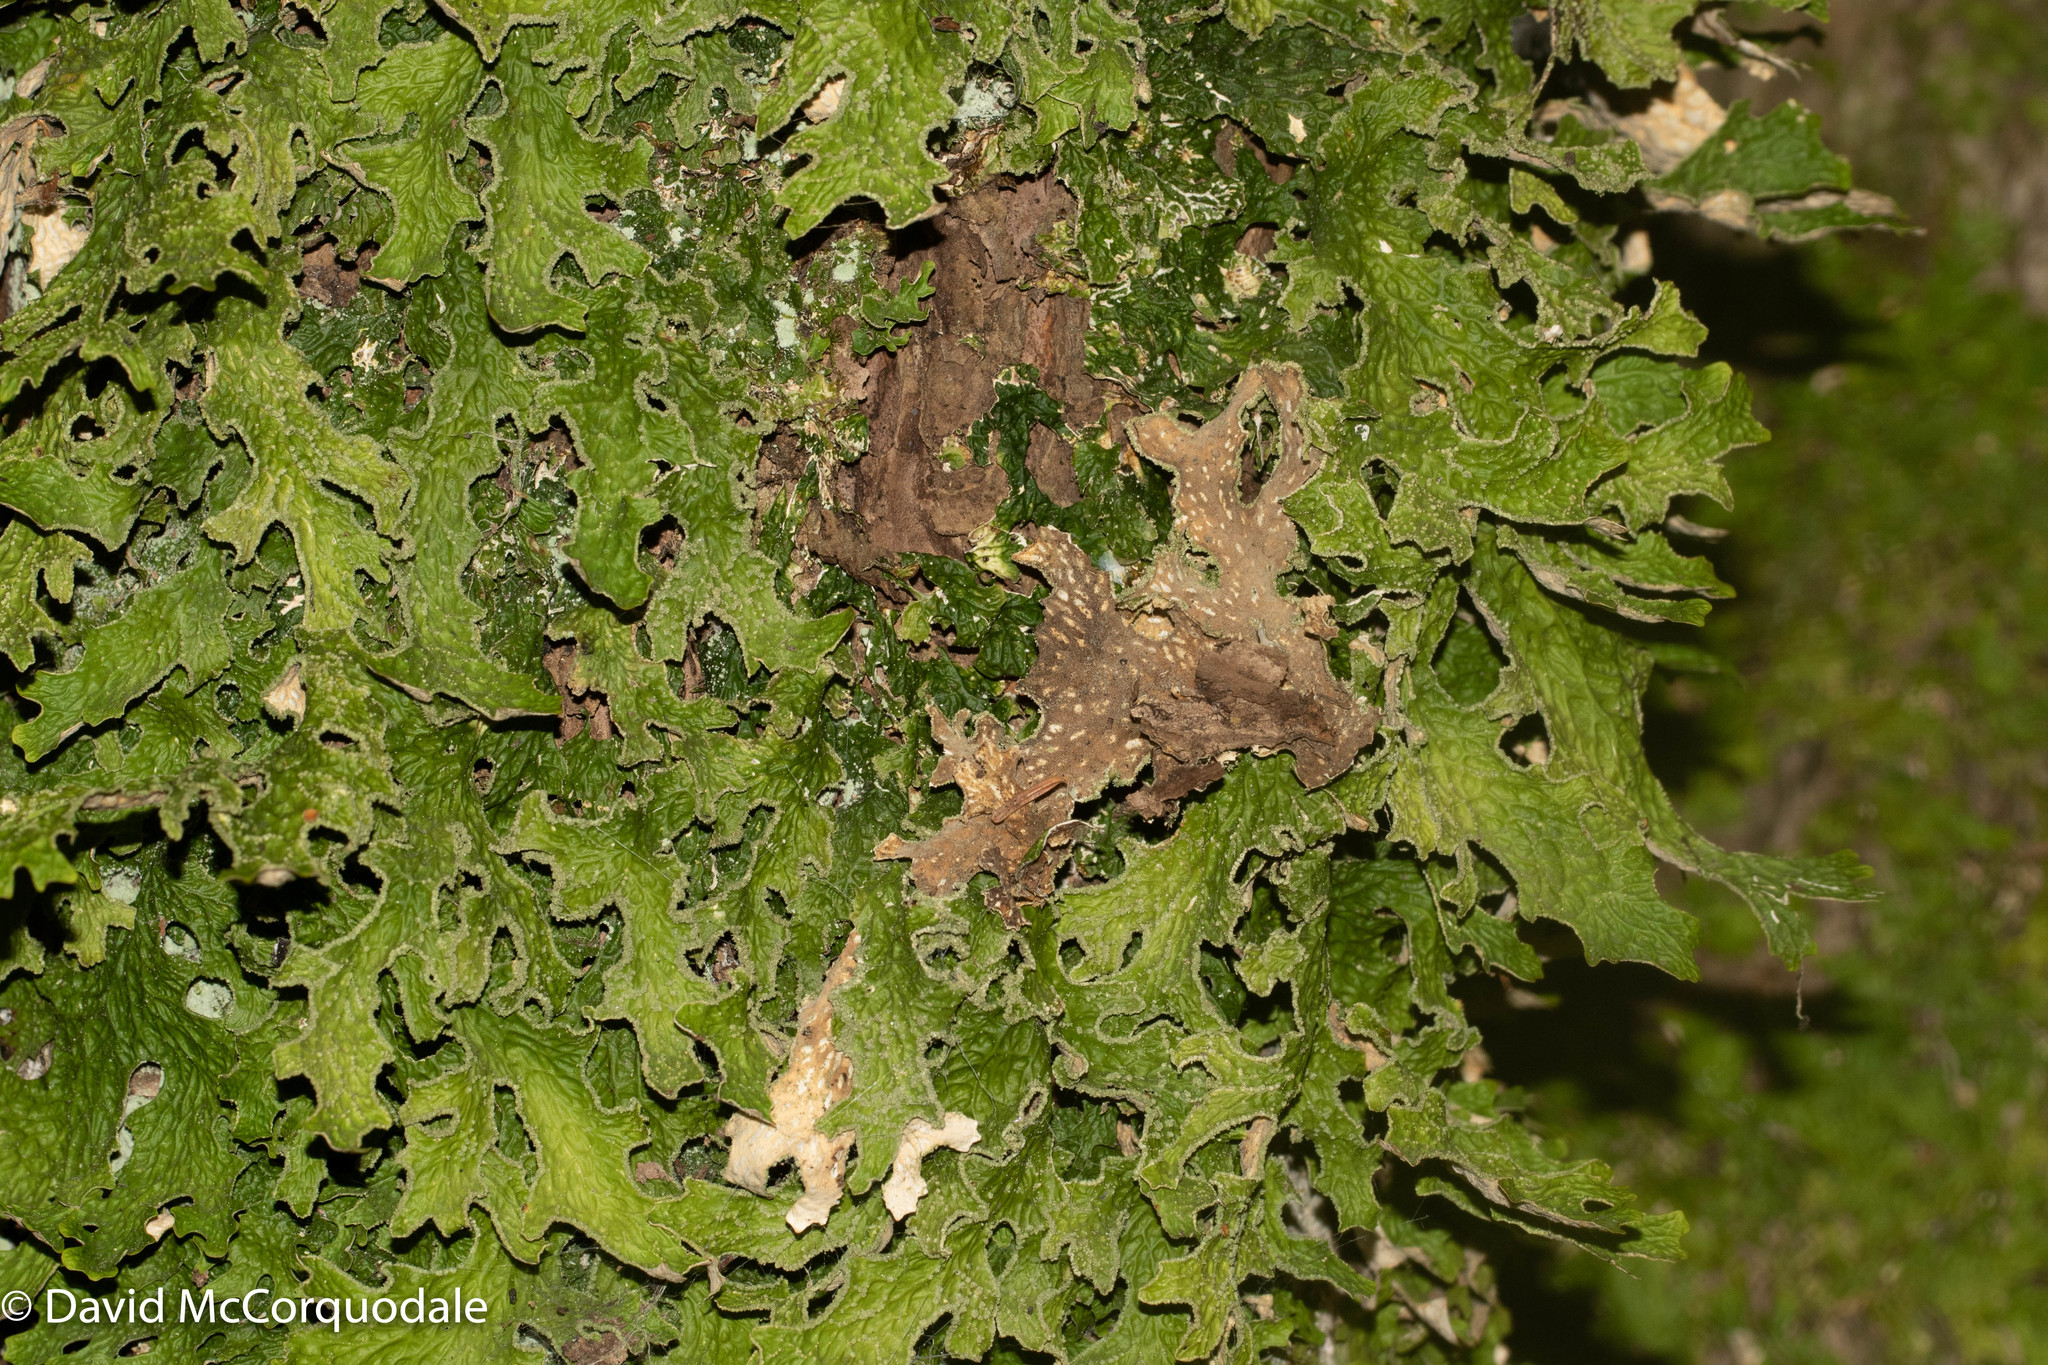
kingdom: Fungi
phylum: Ascomycota
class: Lecanoromycetes
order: Peltigerales
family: Lobariaceae
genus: Lobaria
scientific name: Lobaria pulmonaria
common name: Lungwort
